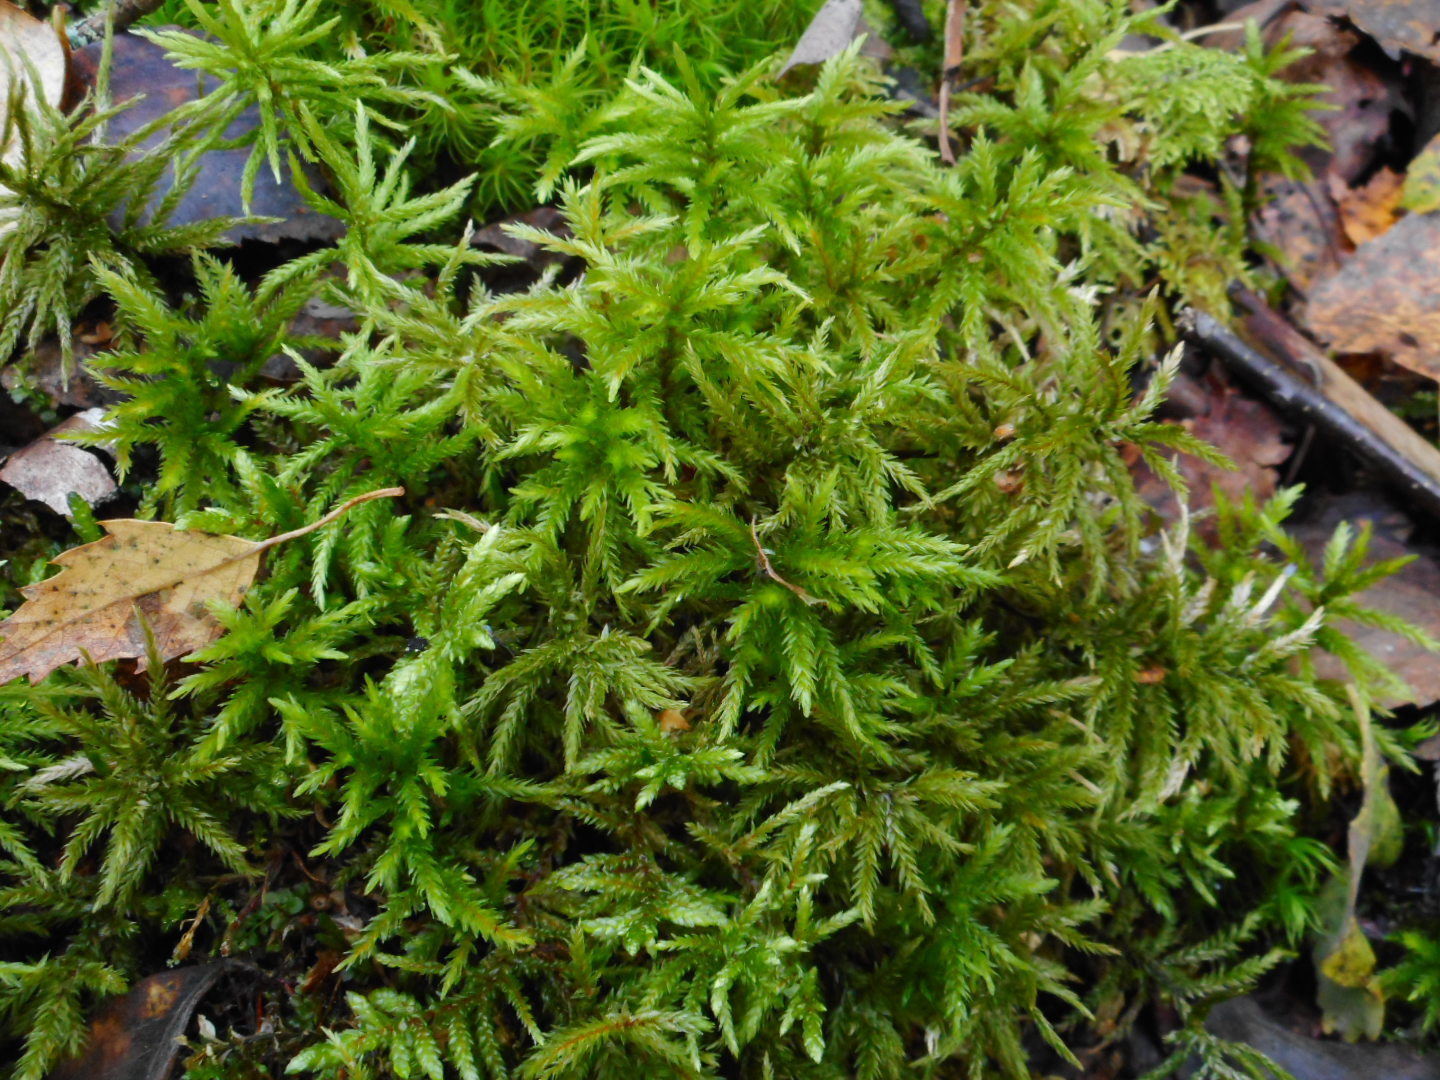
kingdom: Plantae
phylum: Bryophyta
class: Bryopsida
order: Hypnales
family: Climaciaceae
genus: Climacium
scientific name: Climacium dendroides
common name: Northern tree moss
